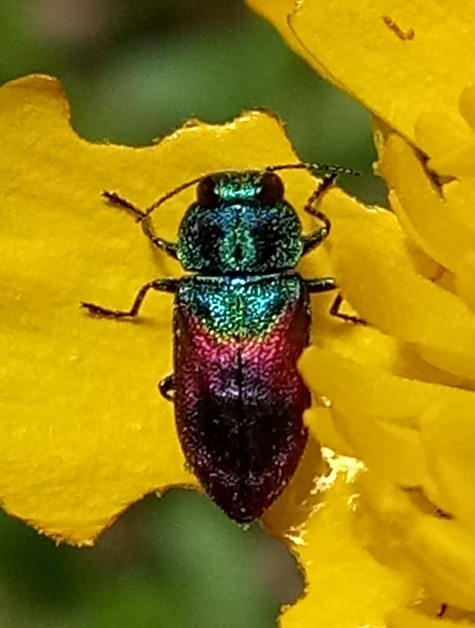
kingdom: Animalia
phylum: Arthropoda
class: Insecta
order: Coleoptera
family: Buprestidae
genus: Anthaxia
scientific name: Anthaxia salicis
